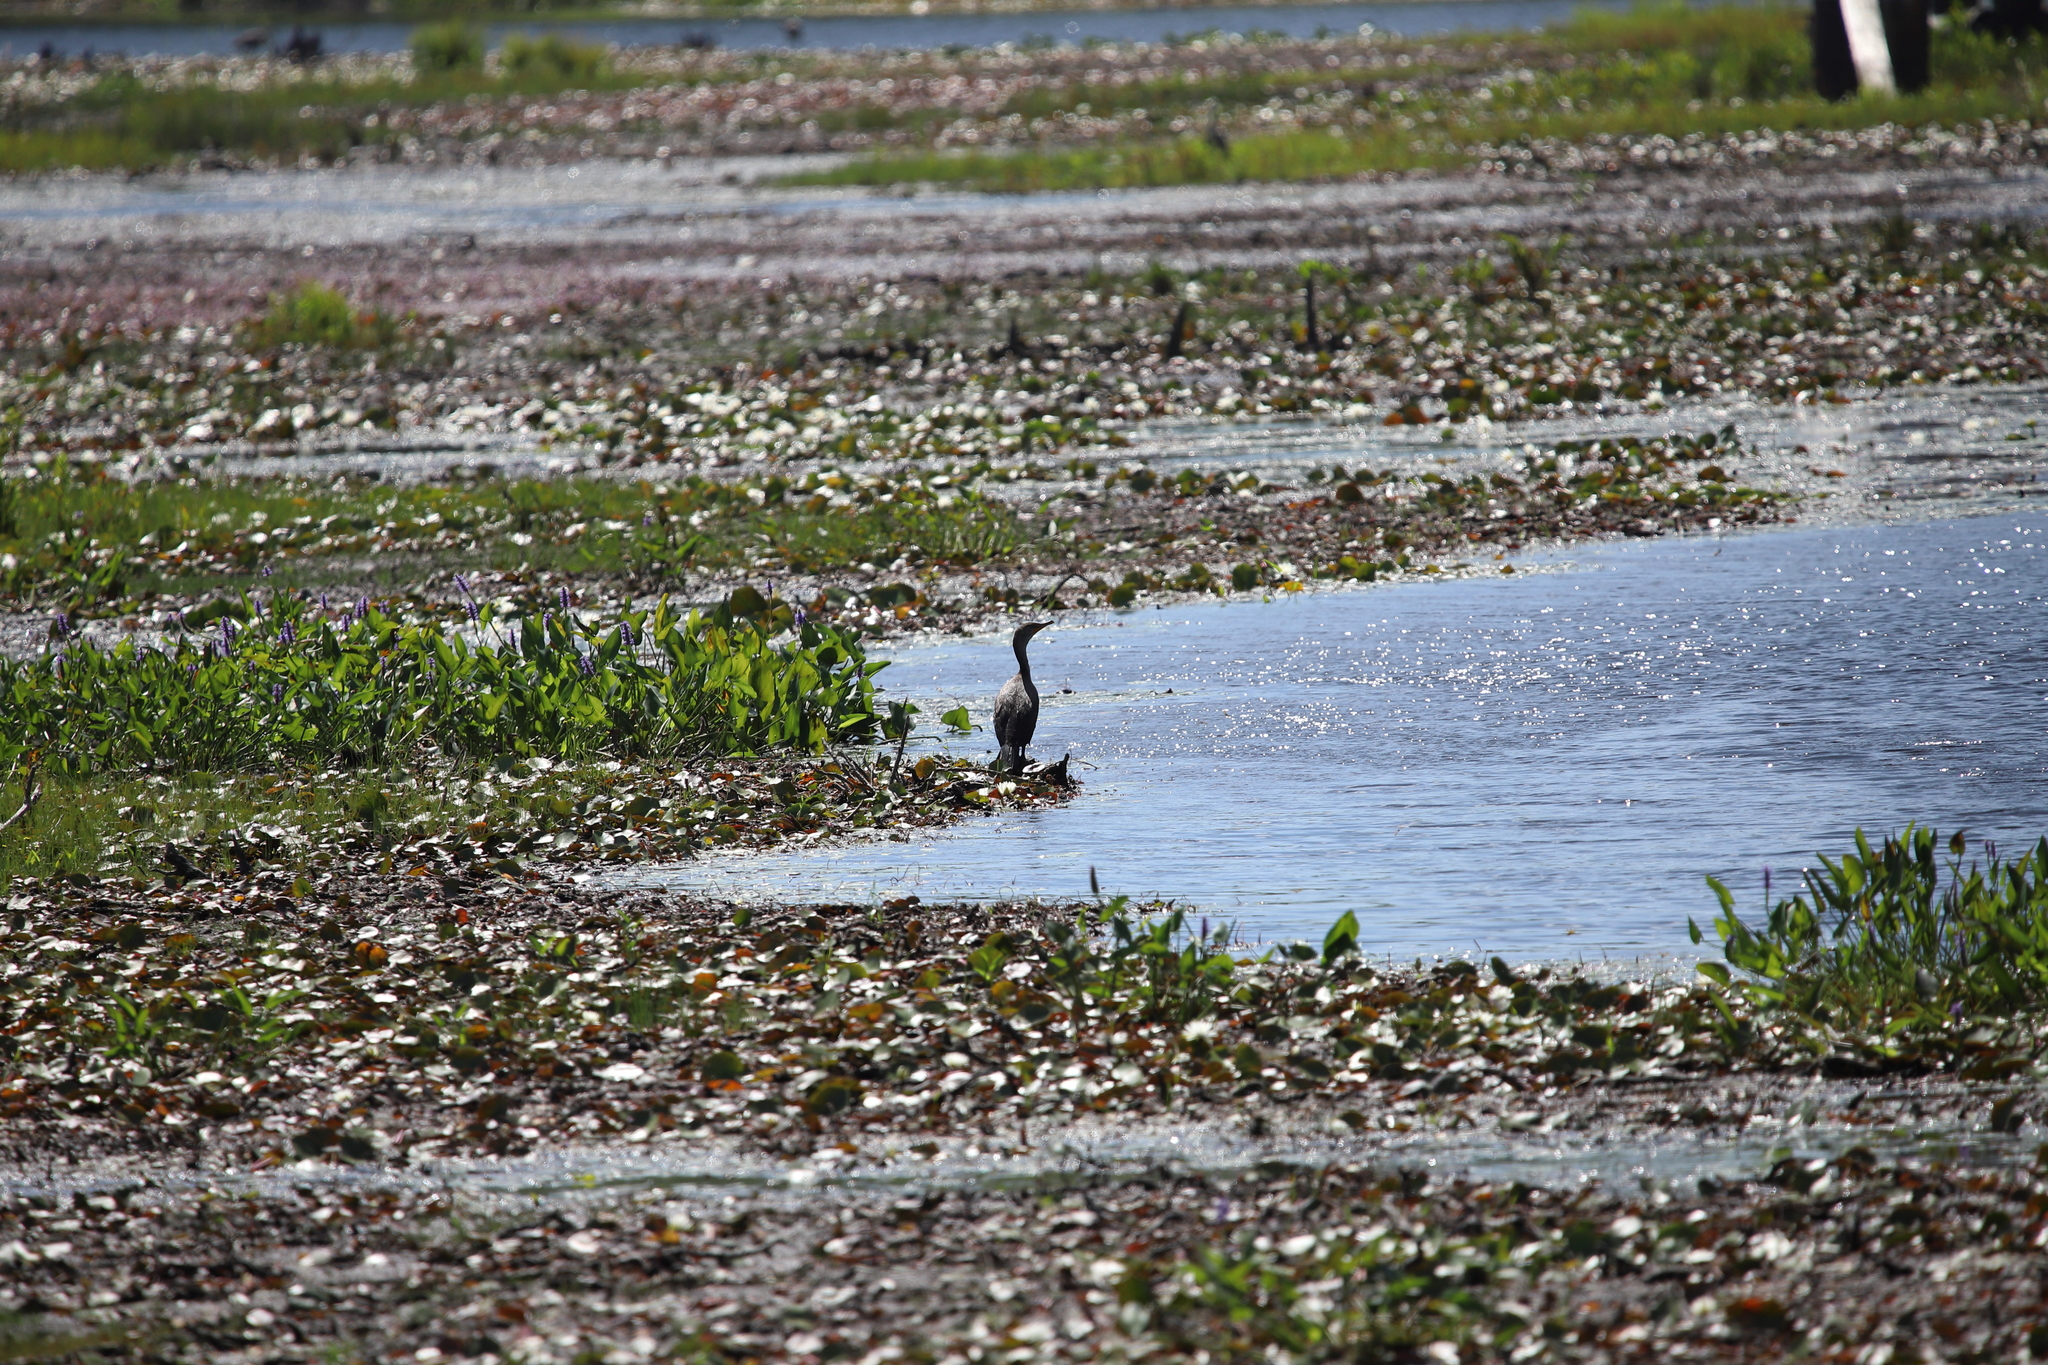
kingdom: Animalia
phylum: Chordata
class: Aves
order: Suliformes
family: Phalacrocoracidae
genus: Phalacrocorax
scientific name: Phalacrocorax auritus
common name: Double-crested cormorant
